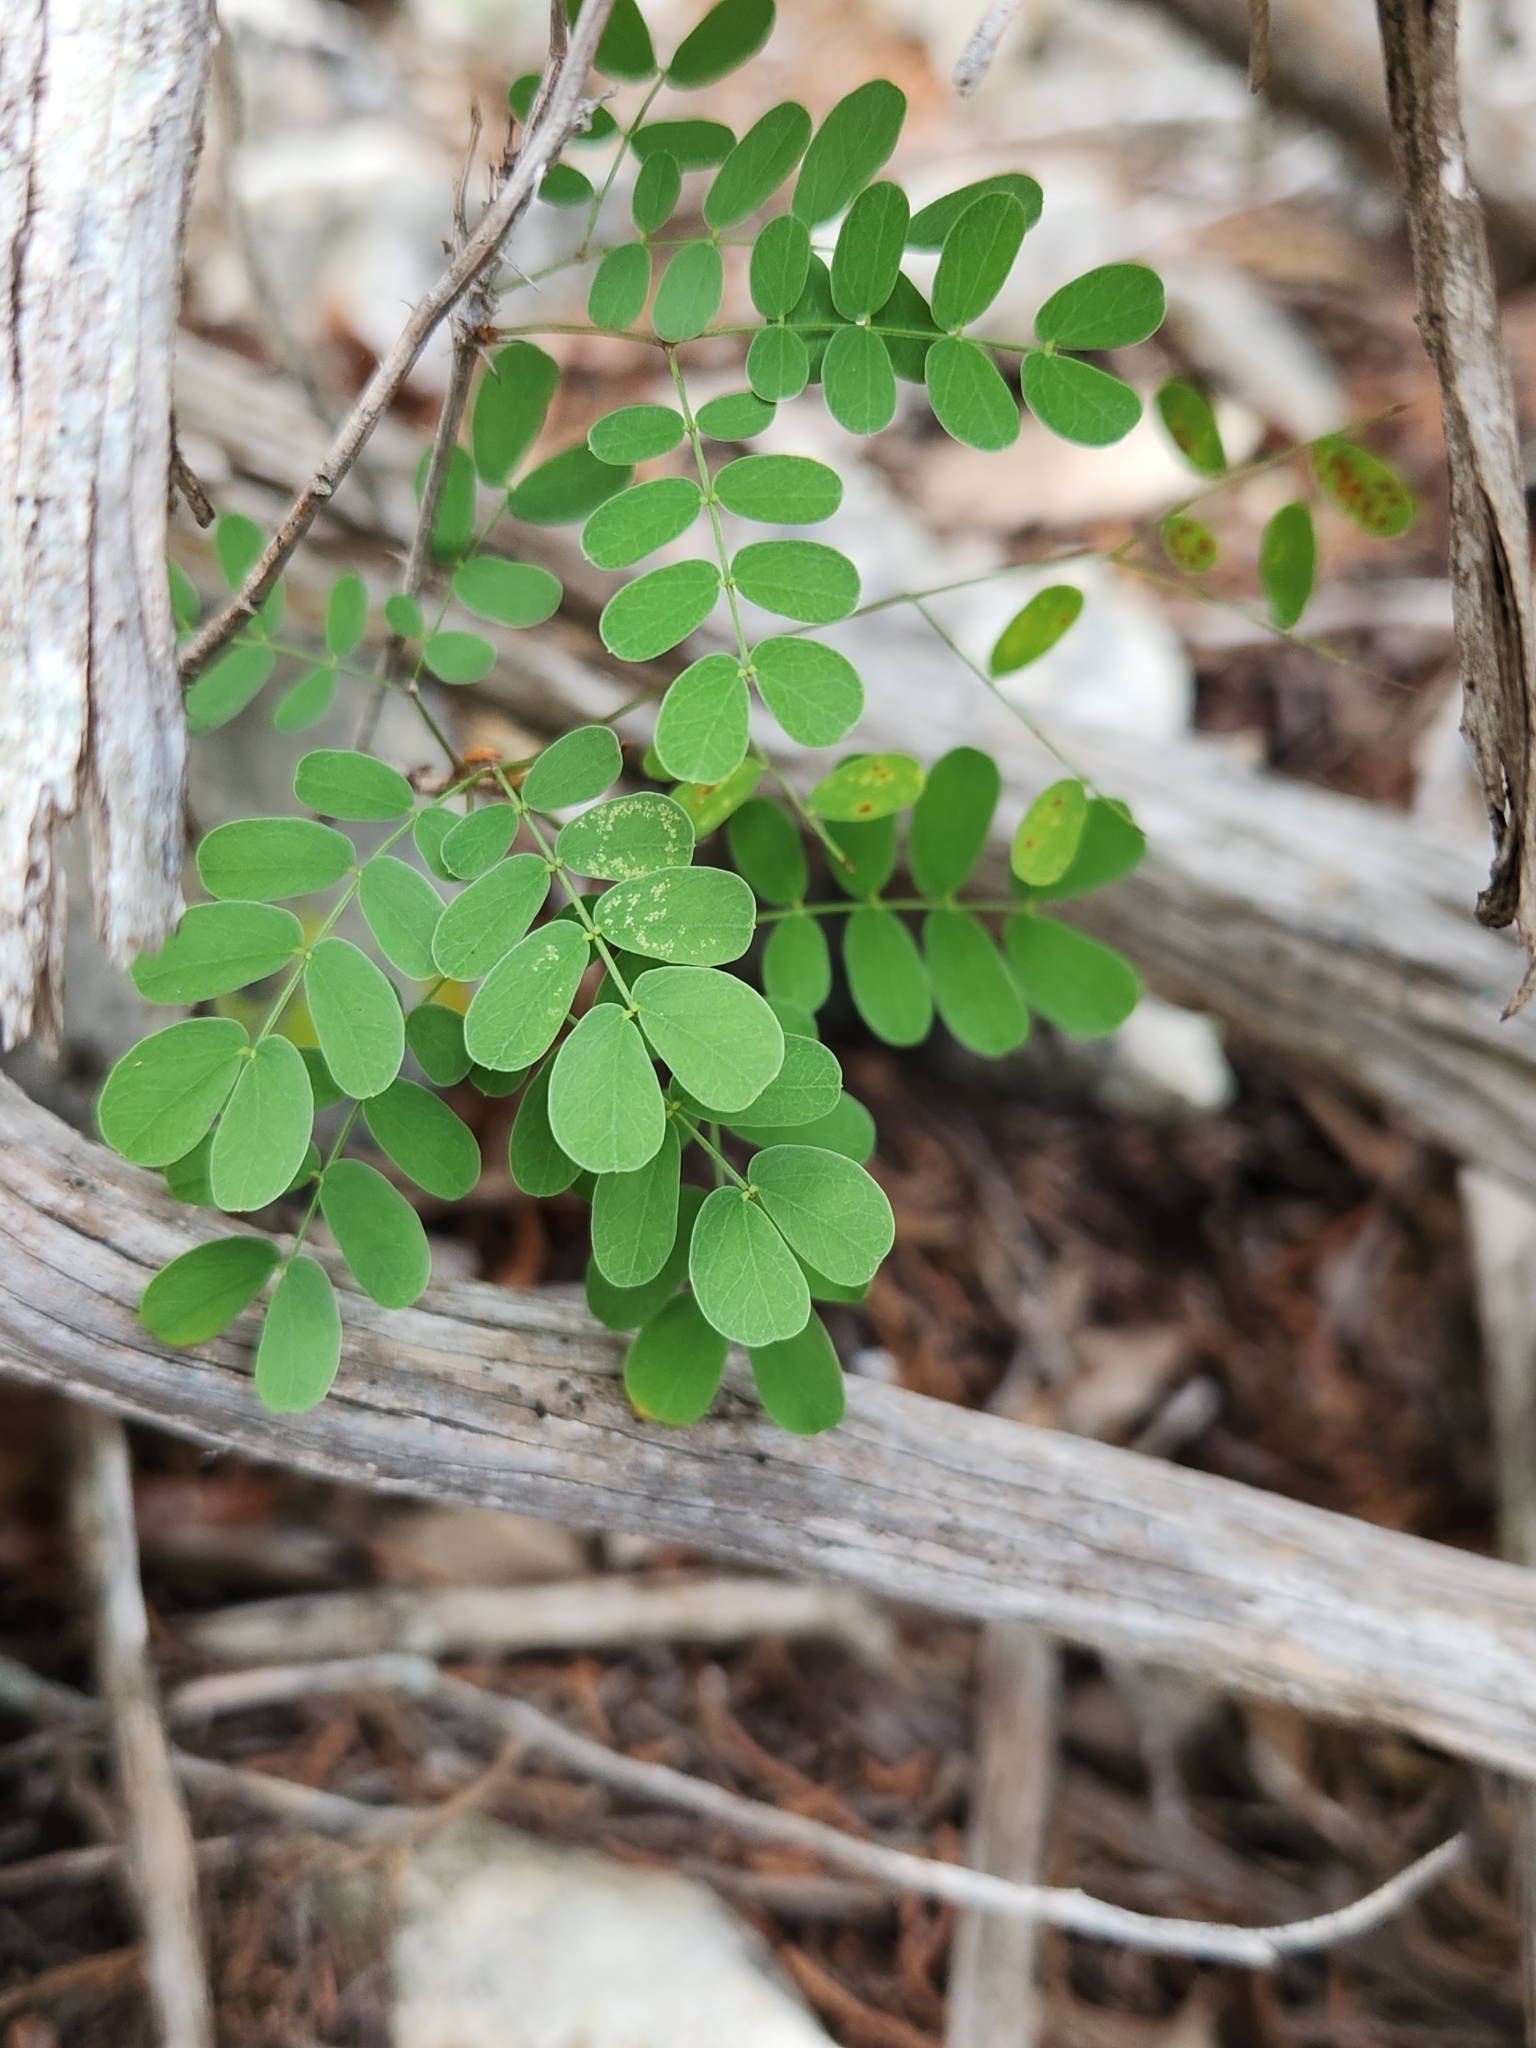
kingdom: Plantae
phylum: Tracheophyta
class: Magnoliopsida
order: Fabales
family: Fabaceae
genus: Leucaena
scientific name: Leucaena retusa
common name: Littleleaf leadtree
